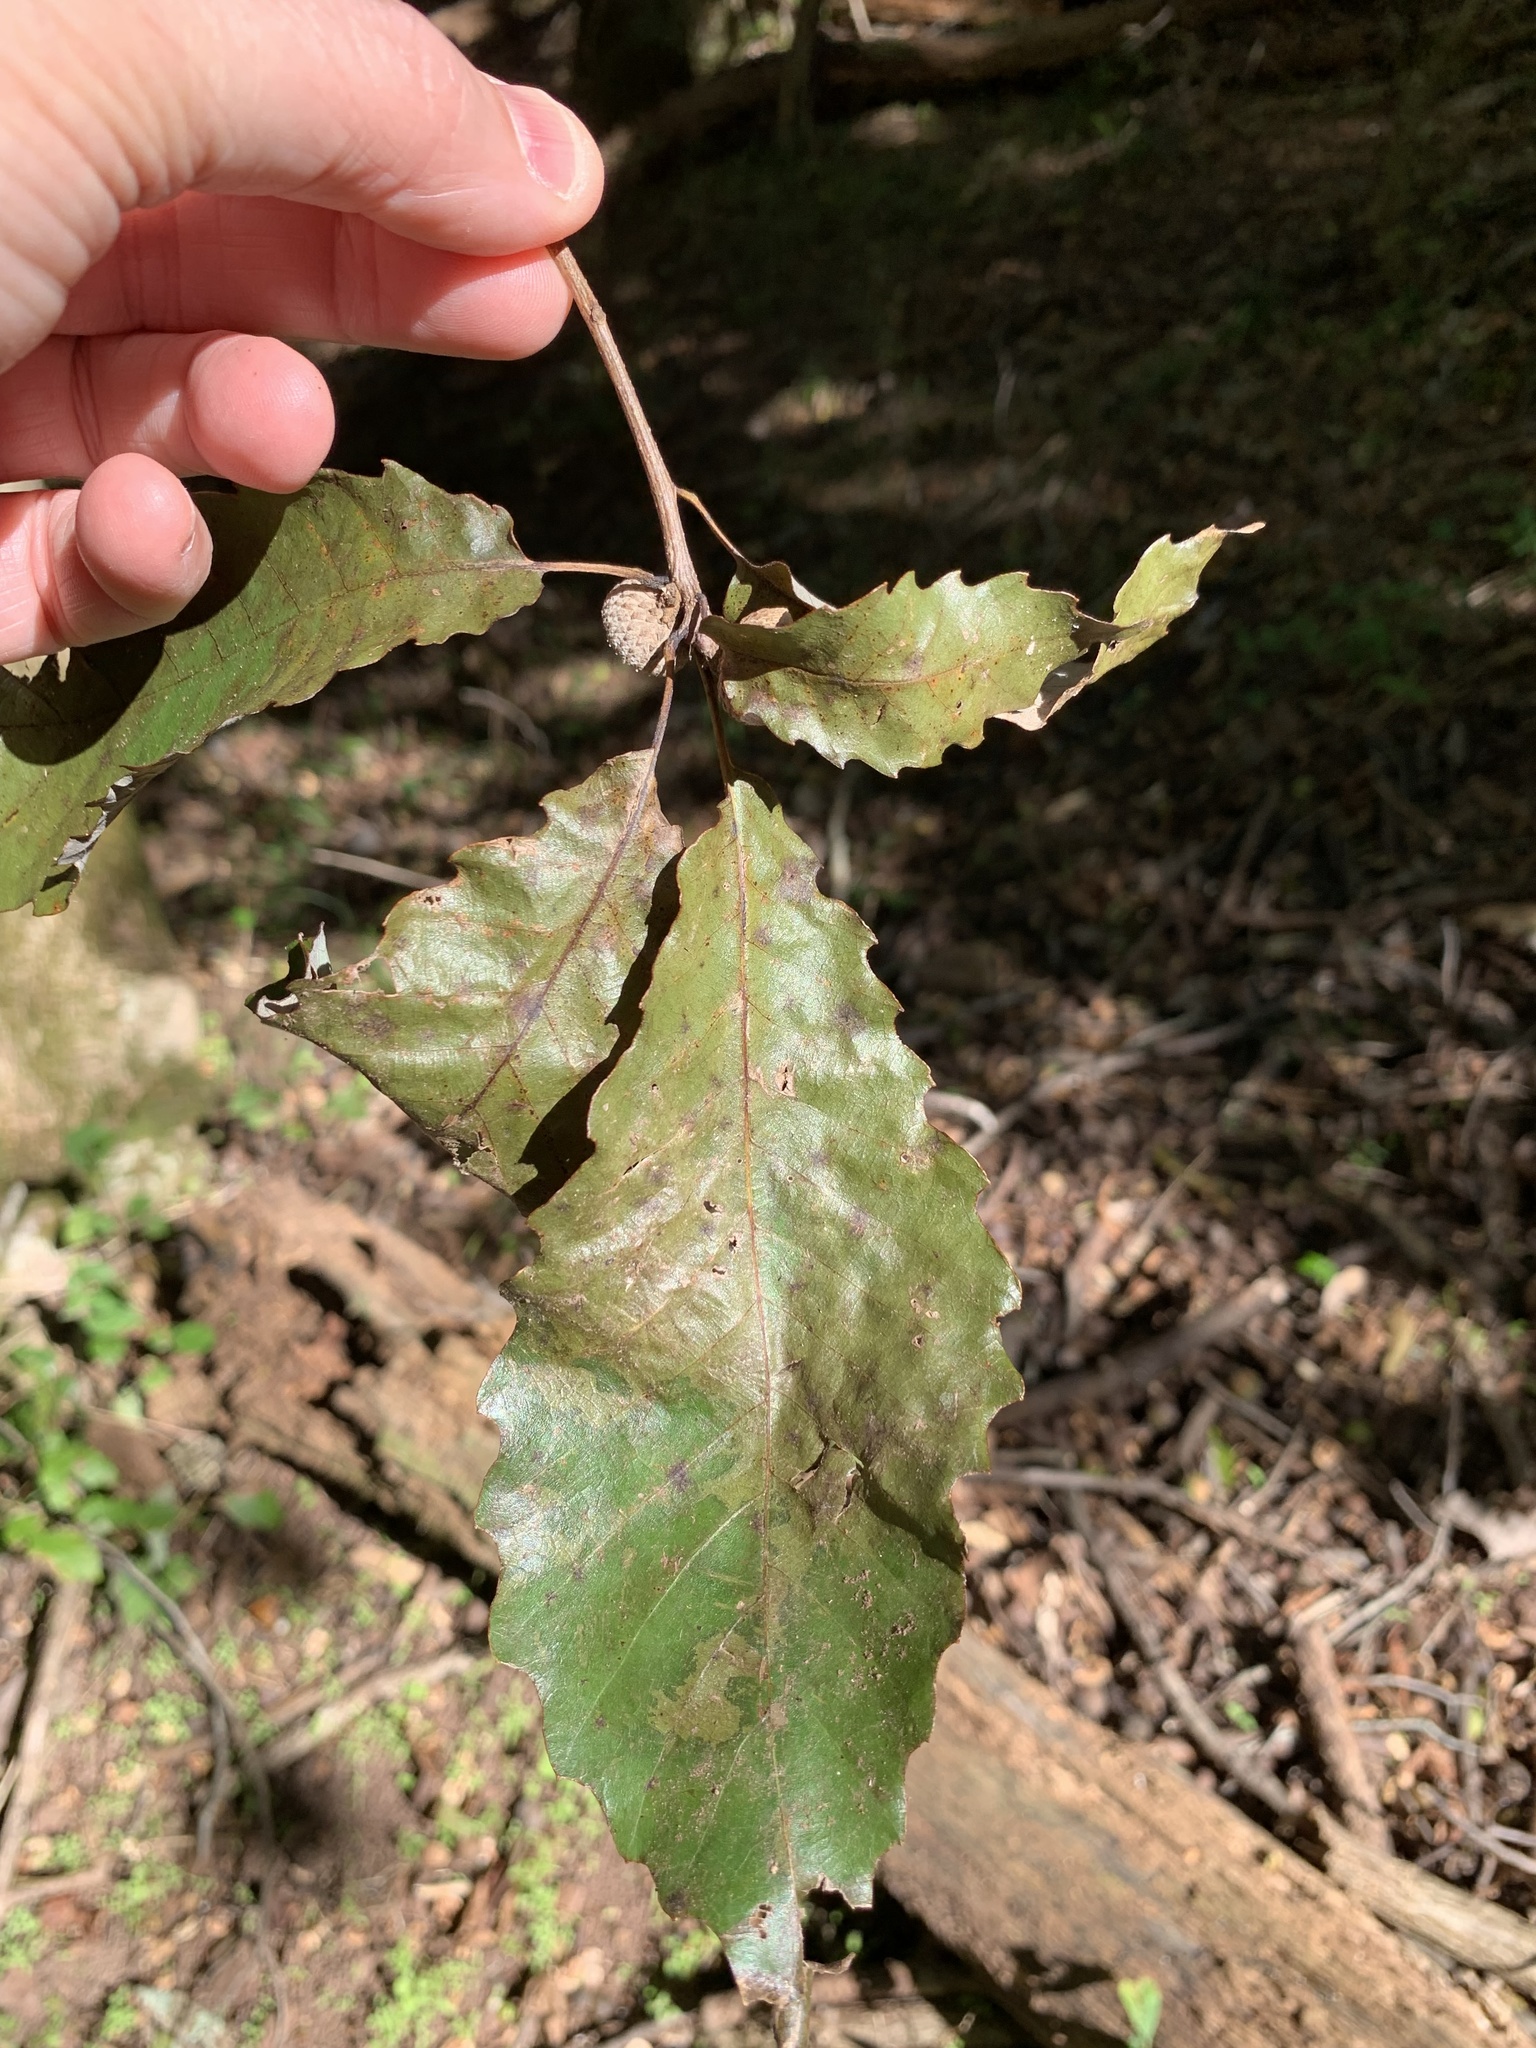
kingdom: Plantae
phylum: Tracheophyta
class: Magnoliopsida
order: Fagales
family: Fagaceae
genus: Quercus
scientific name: Quercus muehlenbergii
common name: Chinkapin oak
